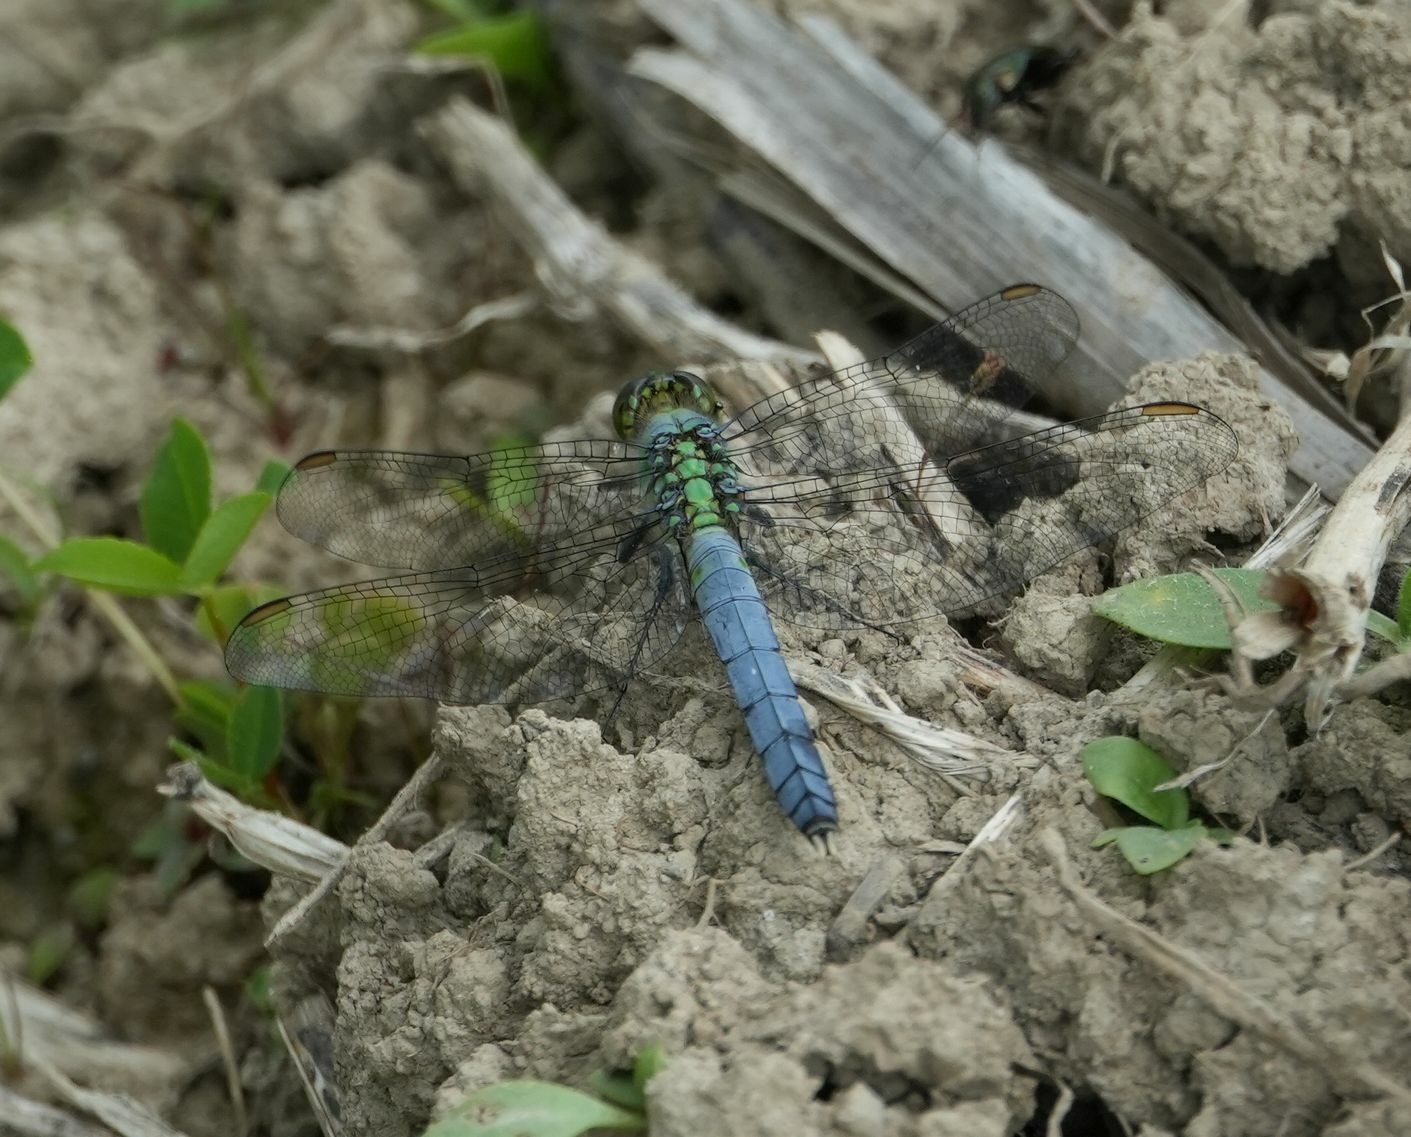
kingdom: Animalia
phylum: Arthropoda
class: Insecta
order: Odonata
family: Libellulidae
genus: Erythemis
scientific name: Erythemis simplicicollis
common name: Eastern pondhawk
